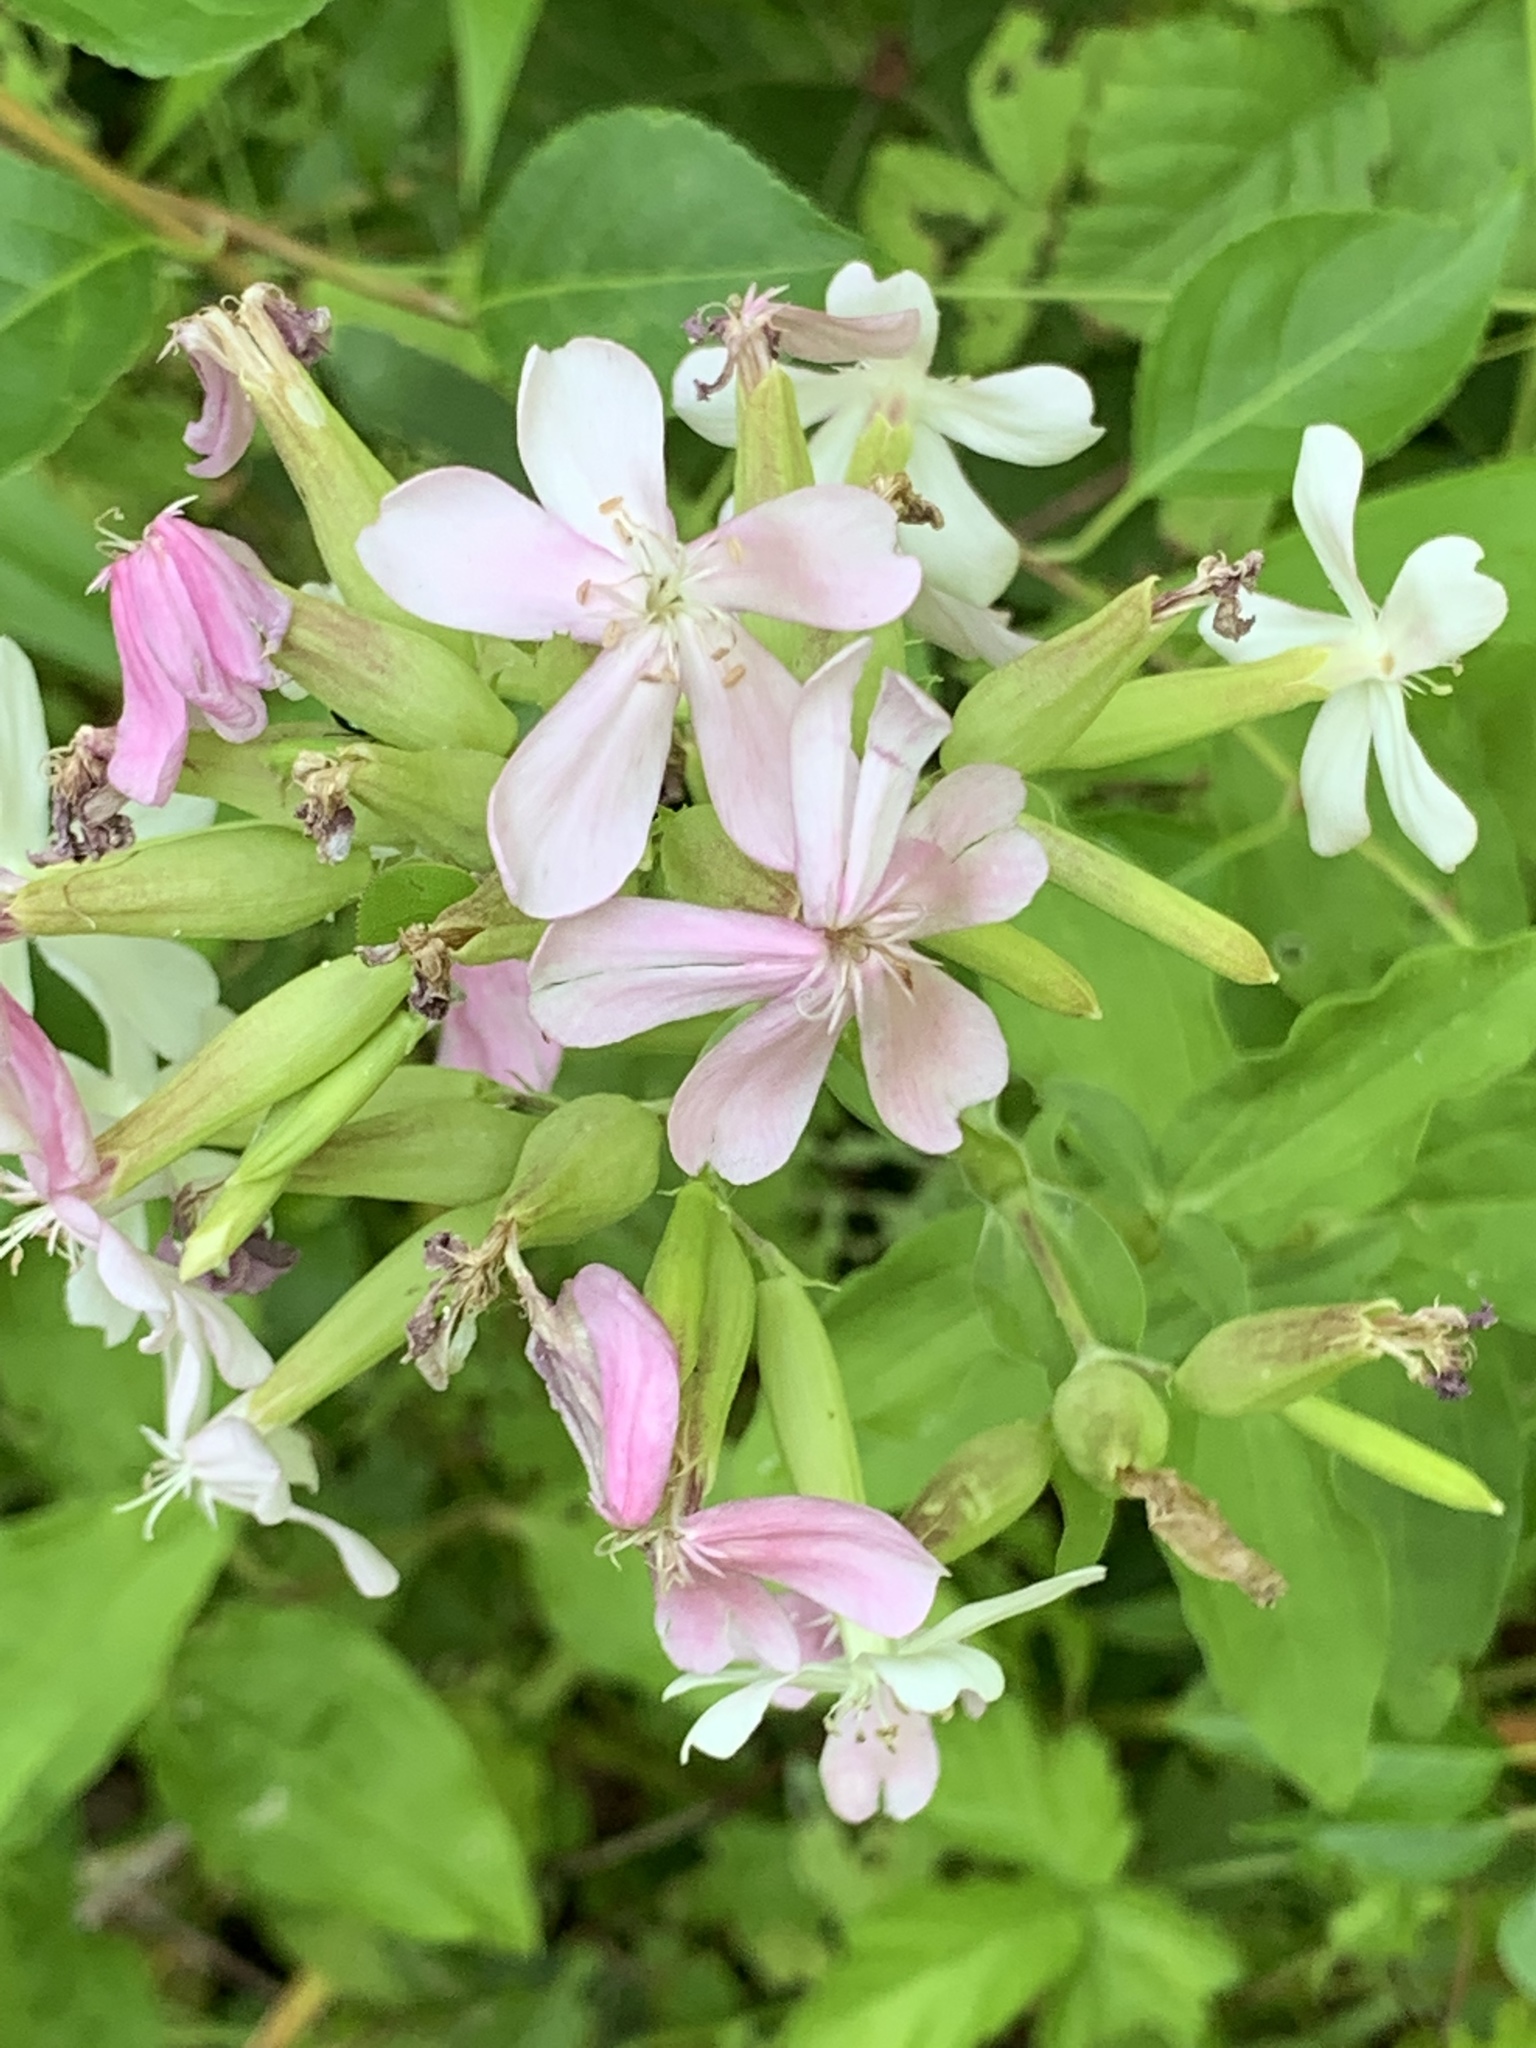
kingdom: Plantae
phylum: Tracheophyta
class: Magnoliopsida
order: Caryophyllales
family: Caryophyllaceae
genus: Saponaria
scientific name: Saponaria officinalis
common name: Soapwort
